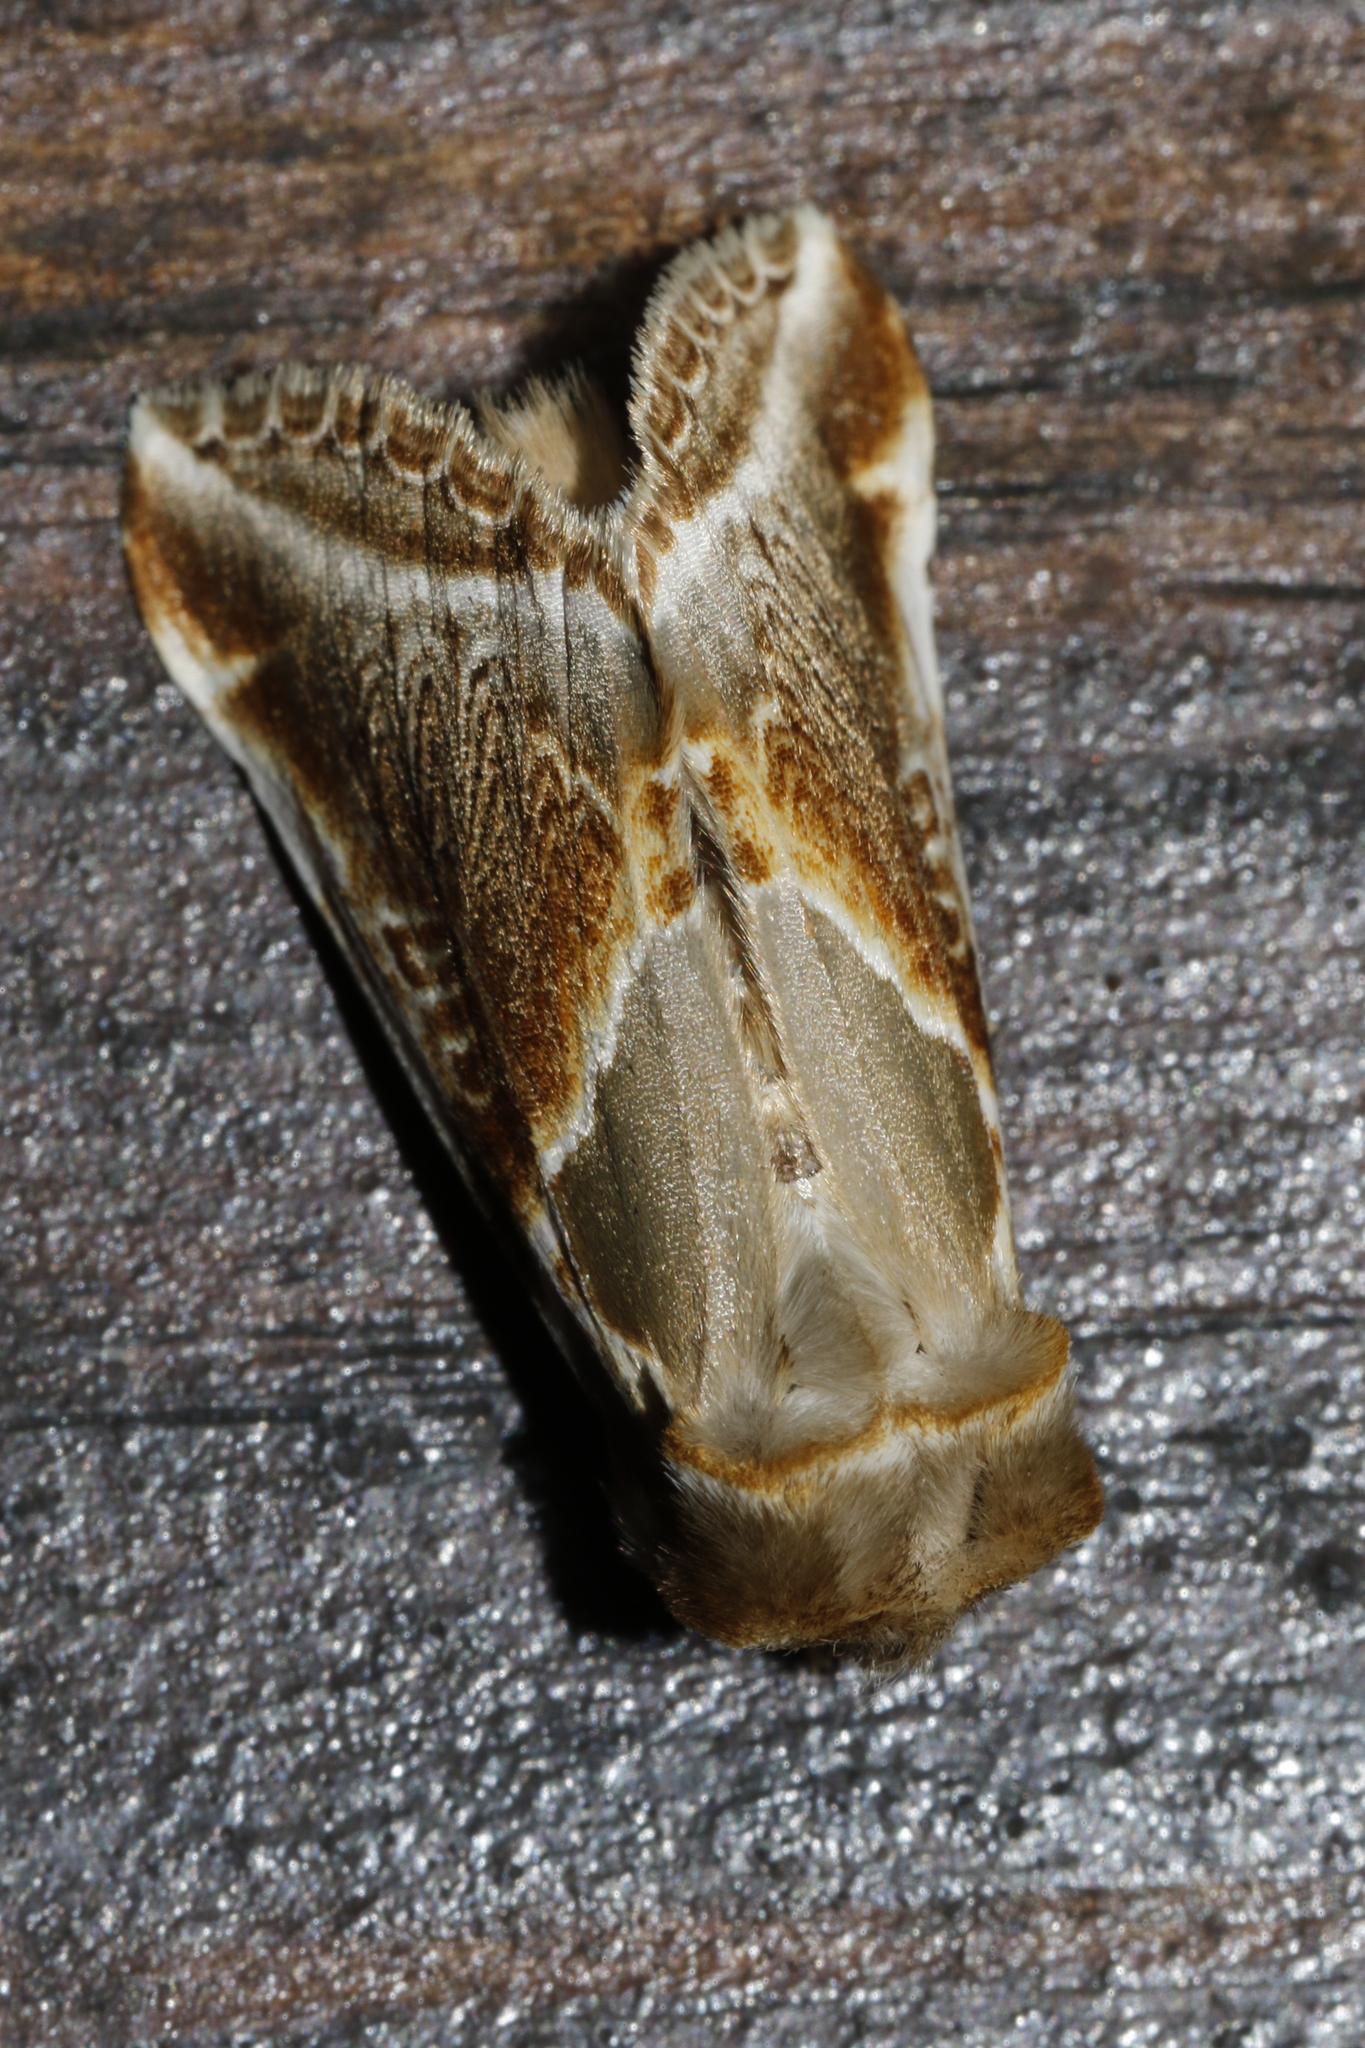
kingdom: Animalia
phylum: Arthropoda
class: Insecta
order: Lepidoptera
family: Drepanidae
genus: Habrosyne
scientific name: Habrosyne pyritoides
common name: Buff arches
